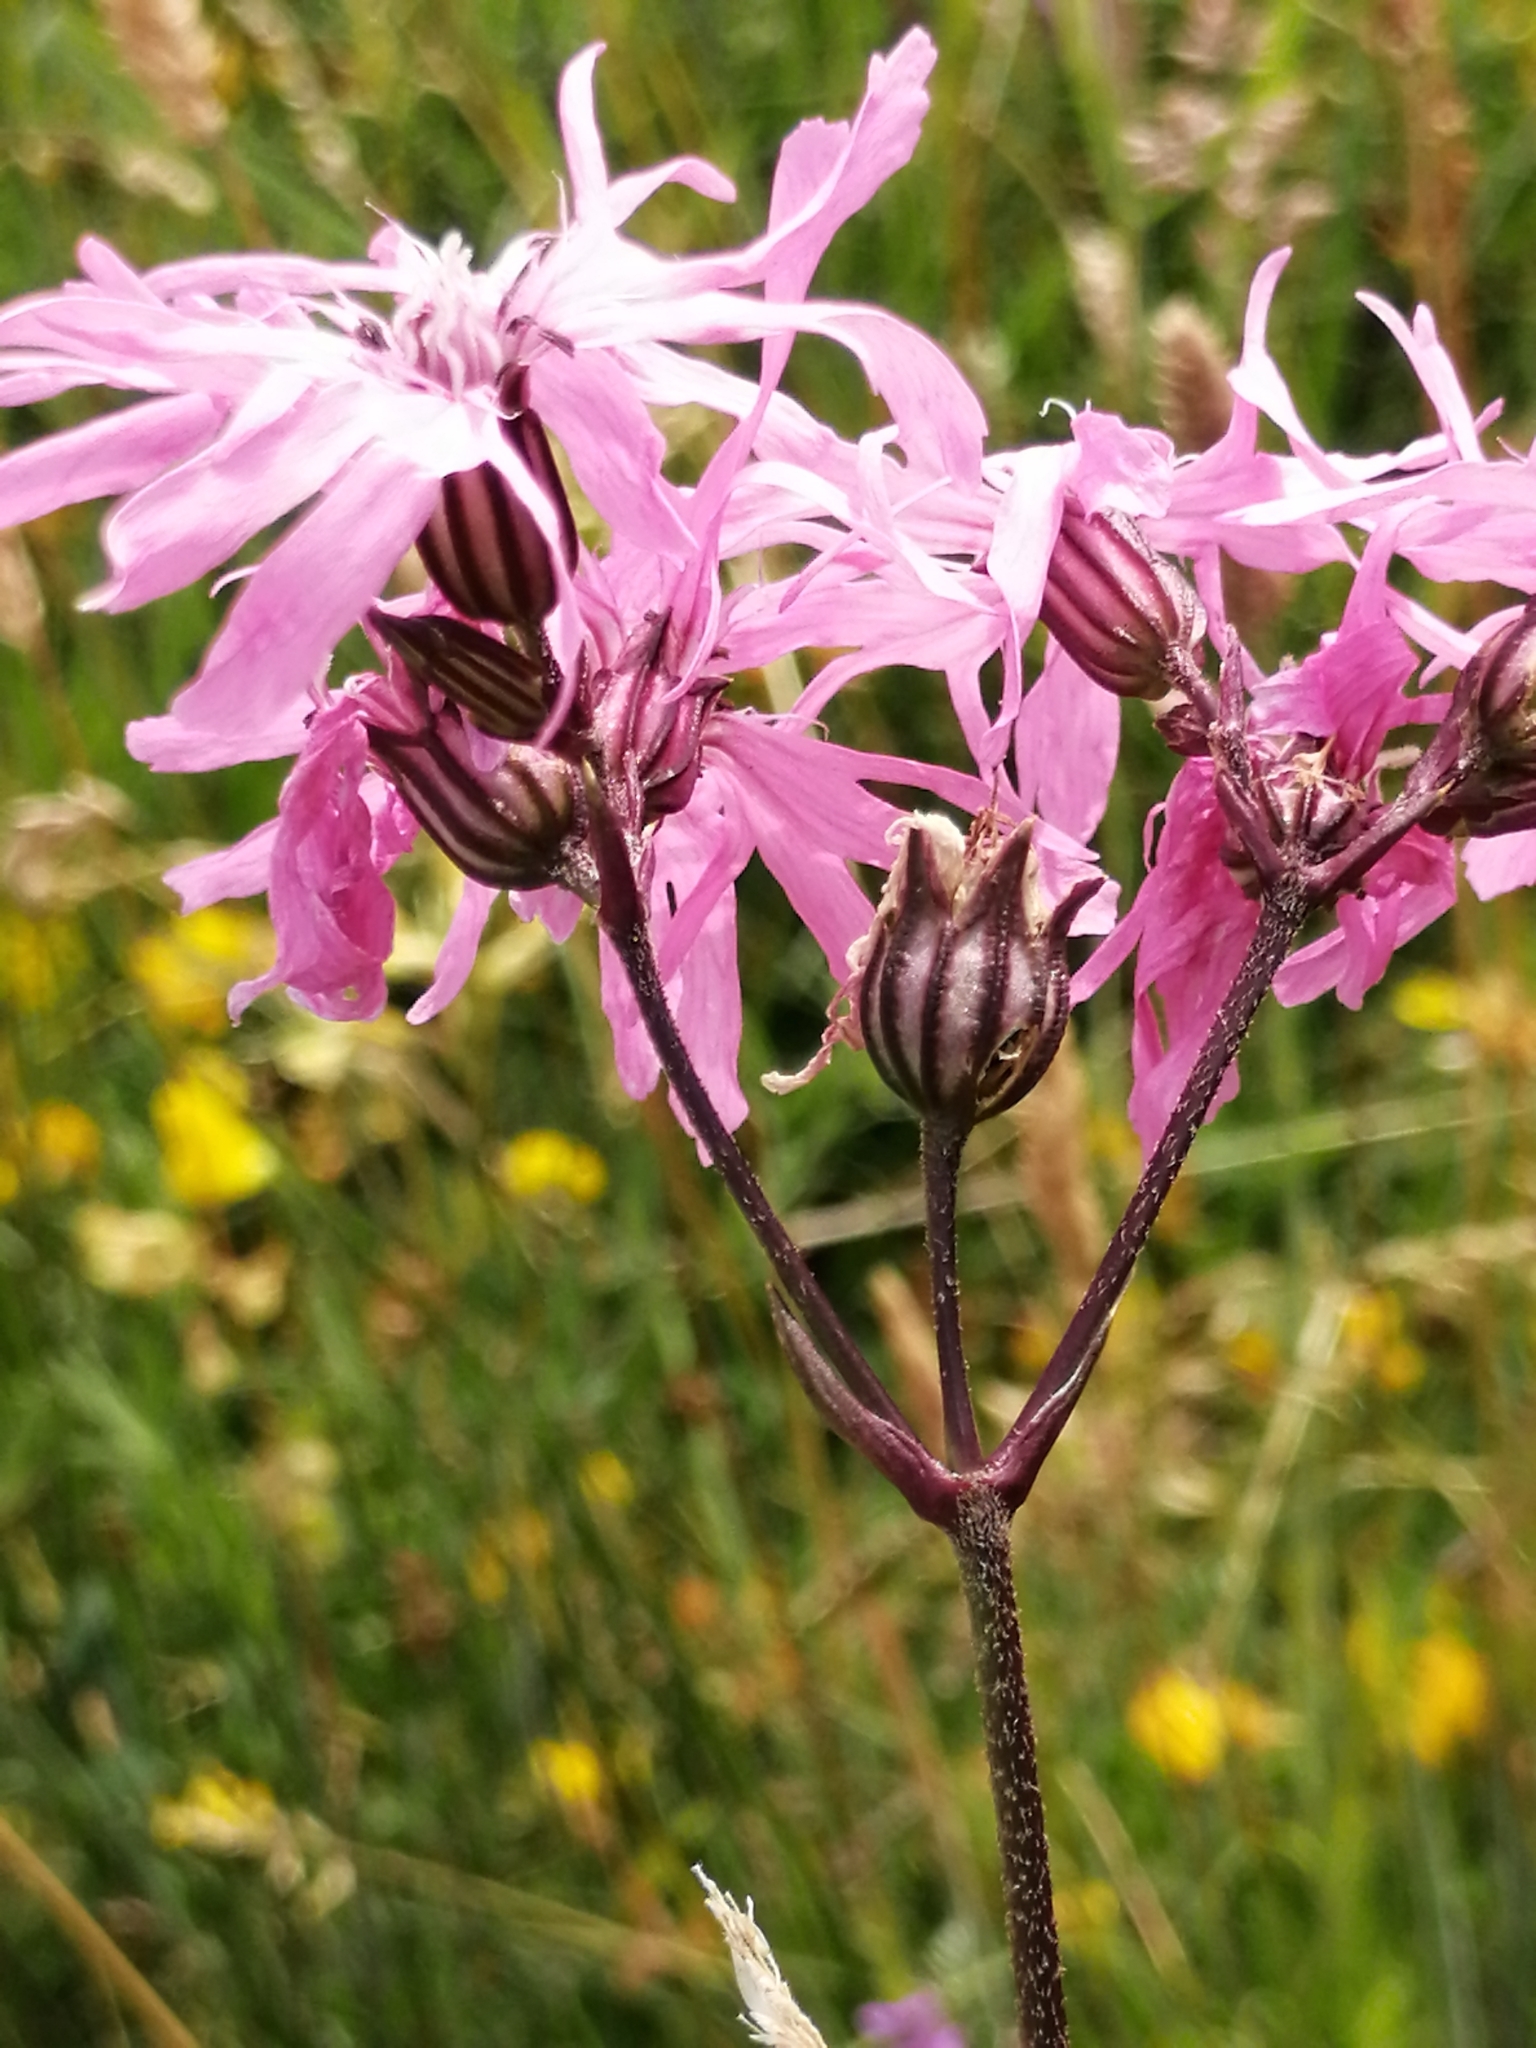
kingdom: Plantae
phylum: Tracheophyta
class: Magnoliopsida
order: Caryophyllales
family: Caryophyllaceae
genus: Silene
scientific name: Silene flos-cuculi
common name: Ragged-robin
